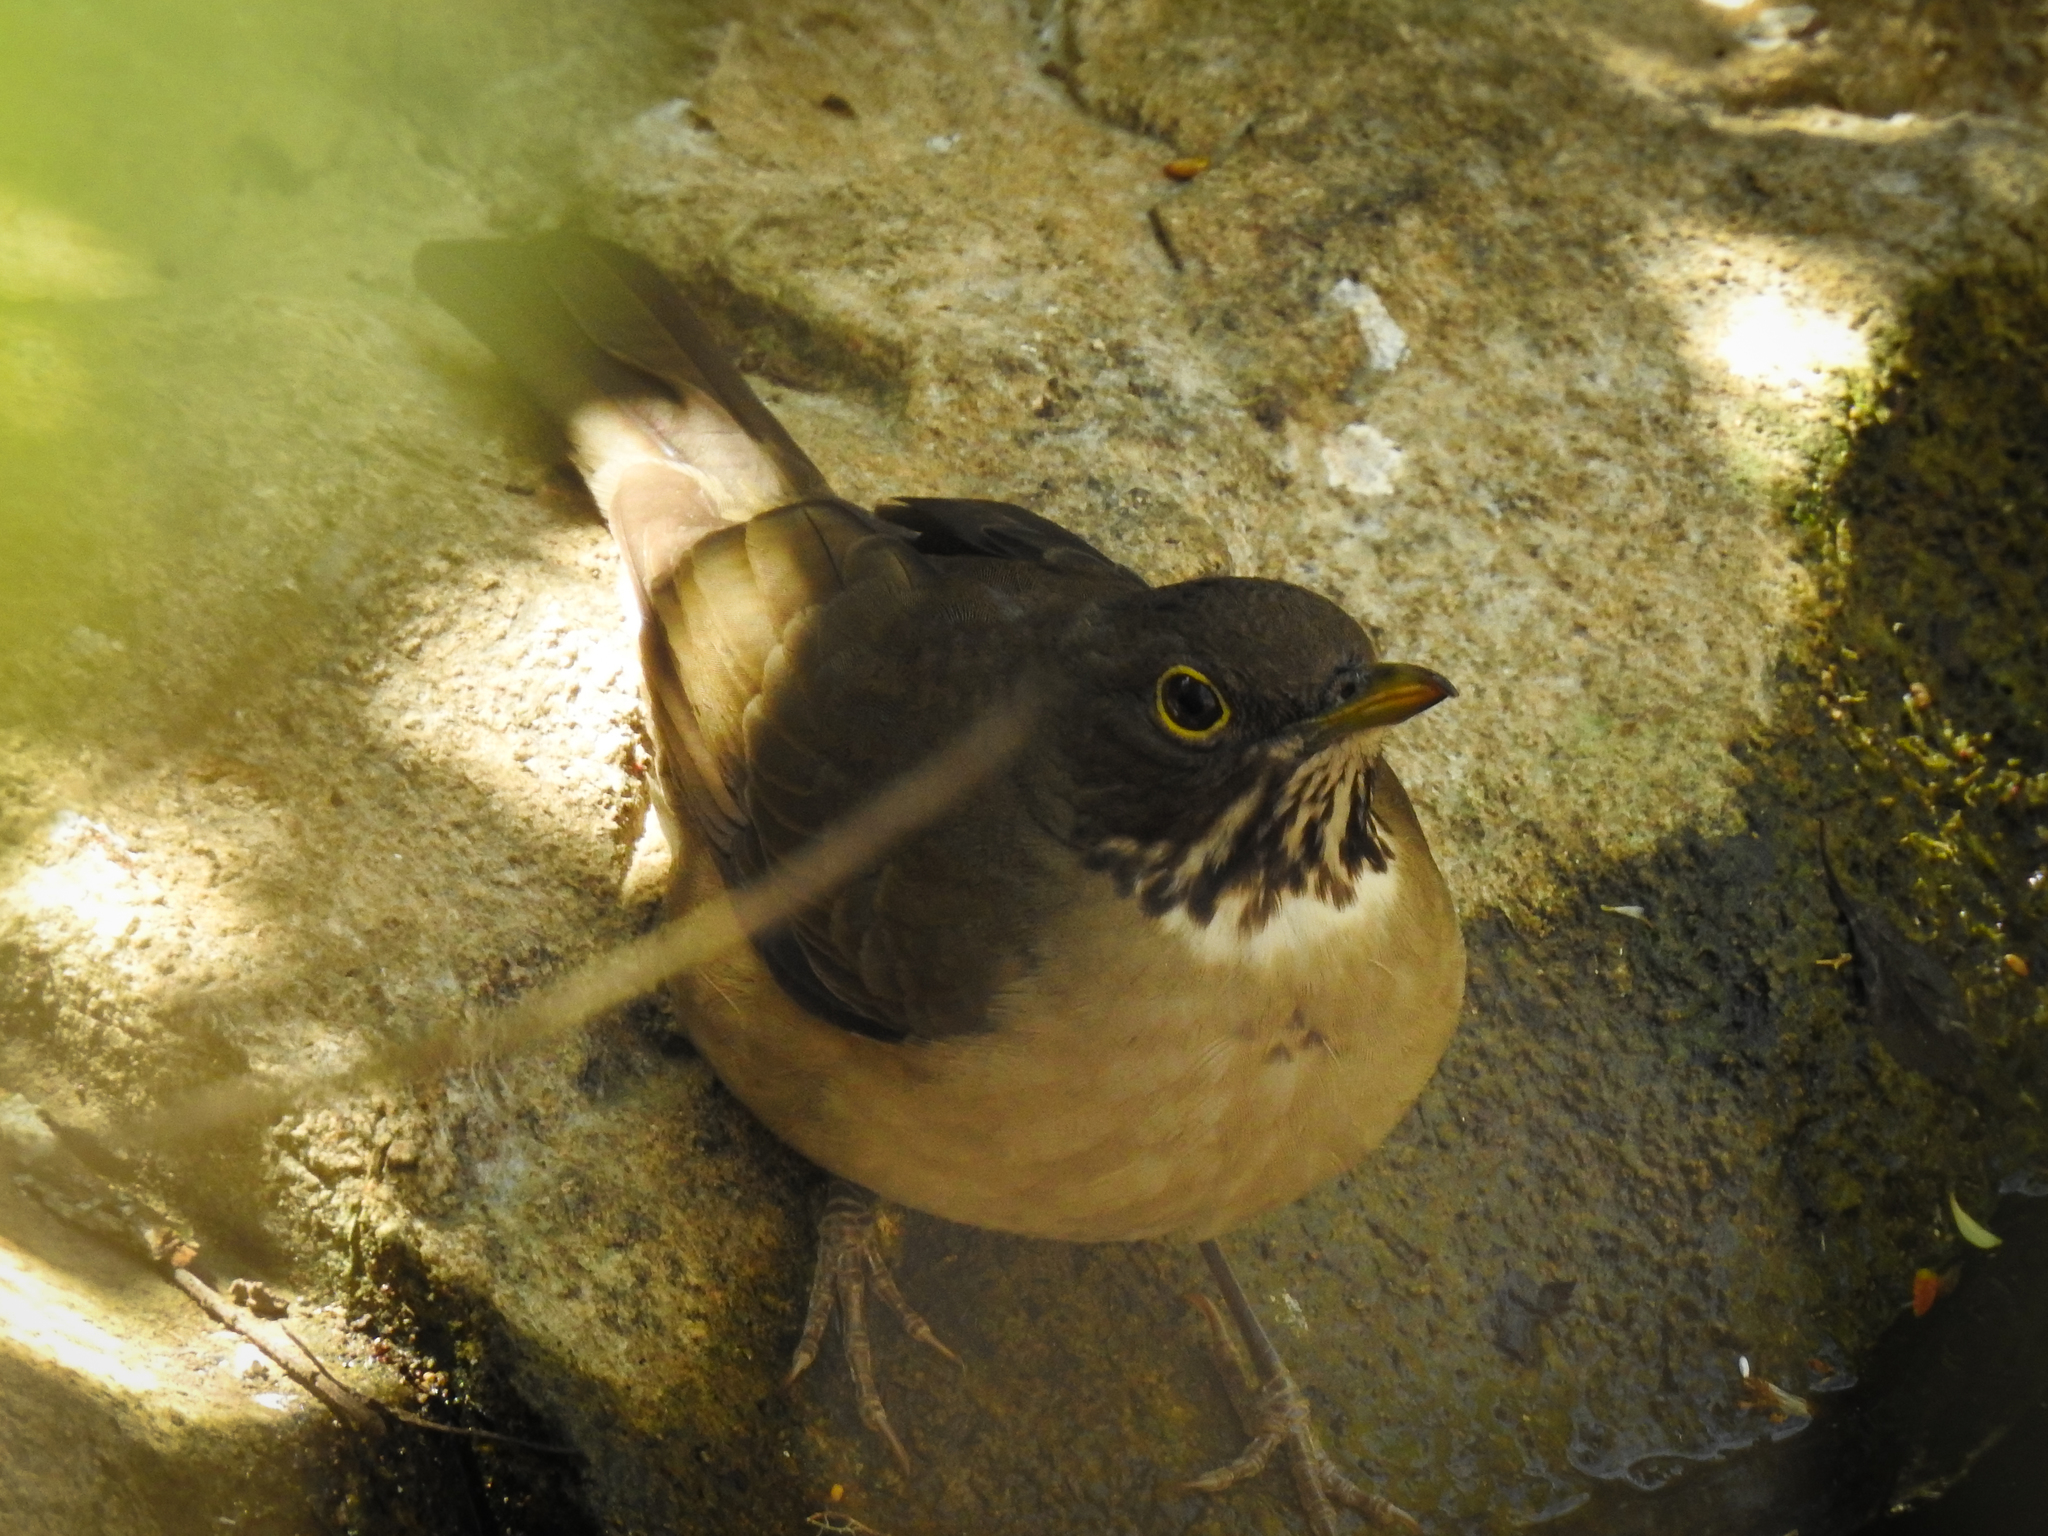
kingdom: Animalia
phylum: Chordata
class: Aves
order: Passeriformes
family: Turdidae
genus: Turdus
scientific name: Turdus assimilis
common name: White-throated thrush
